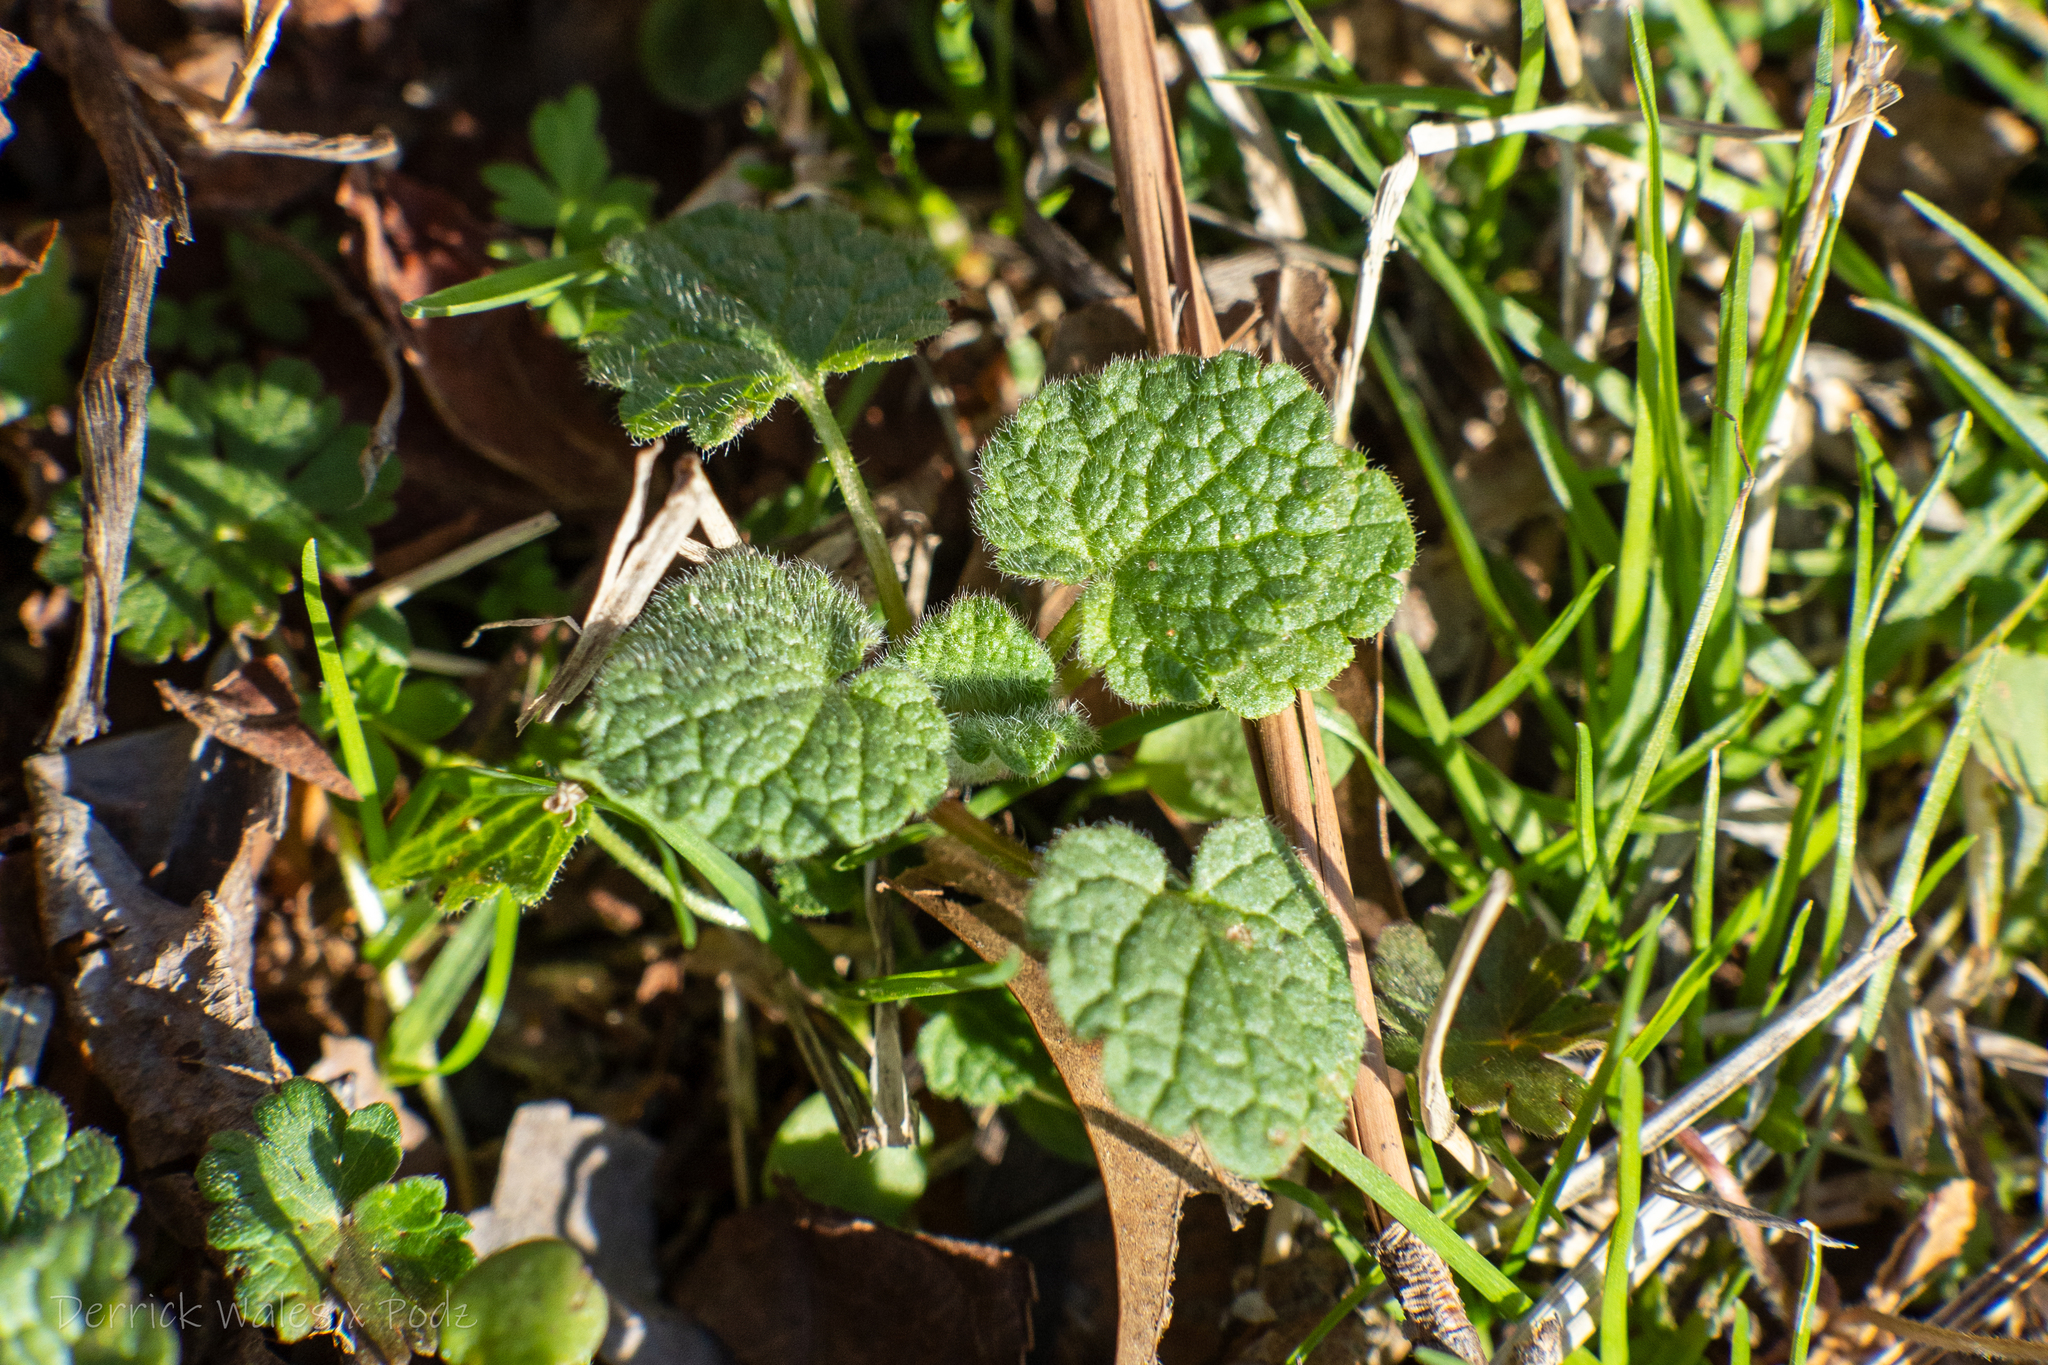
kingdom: Plantae
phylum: Tracheophyta
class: Magnoliopsida
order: Lamiales
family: Lamiaceae
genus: Lamium
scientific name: Lamium purpureum
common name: Red dead-nettle
